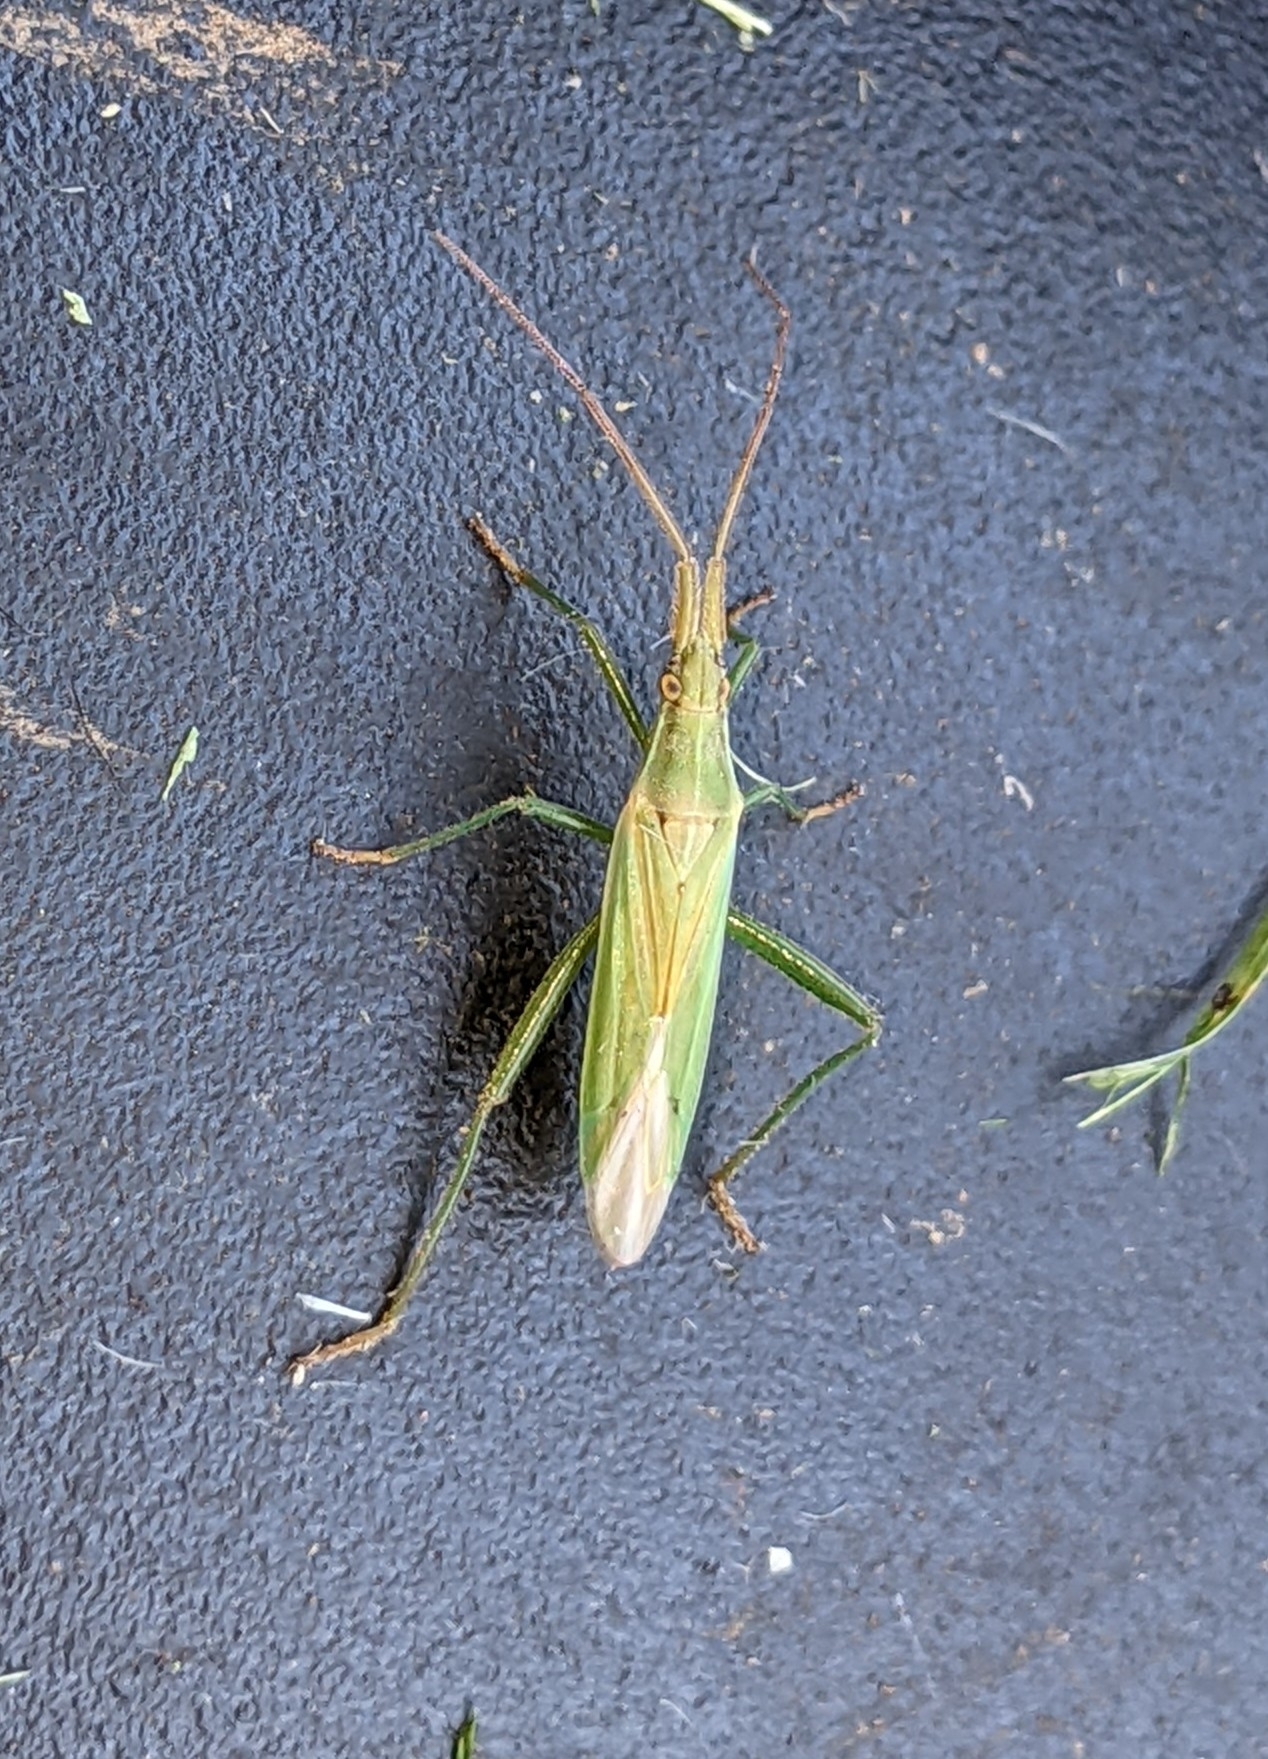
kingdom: Animalia
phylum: Arthropoda
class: Insecta
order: Hemiptera
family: Miridae
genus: Stenodema
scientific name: Stenodema laevigata
